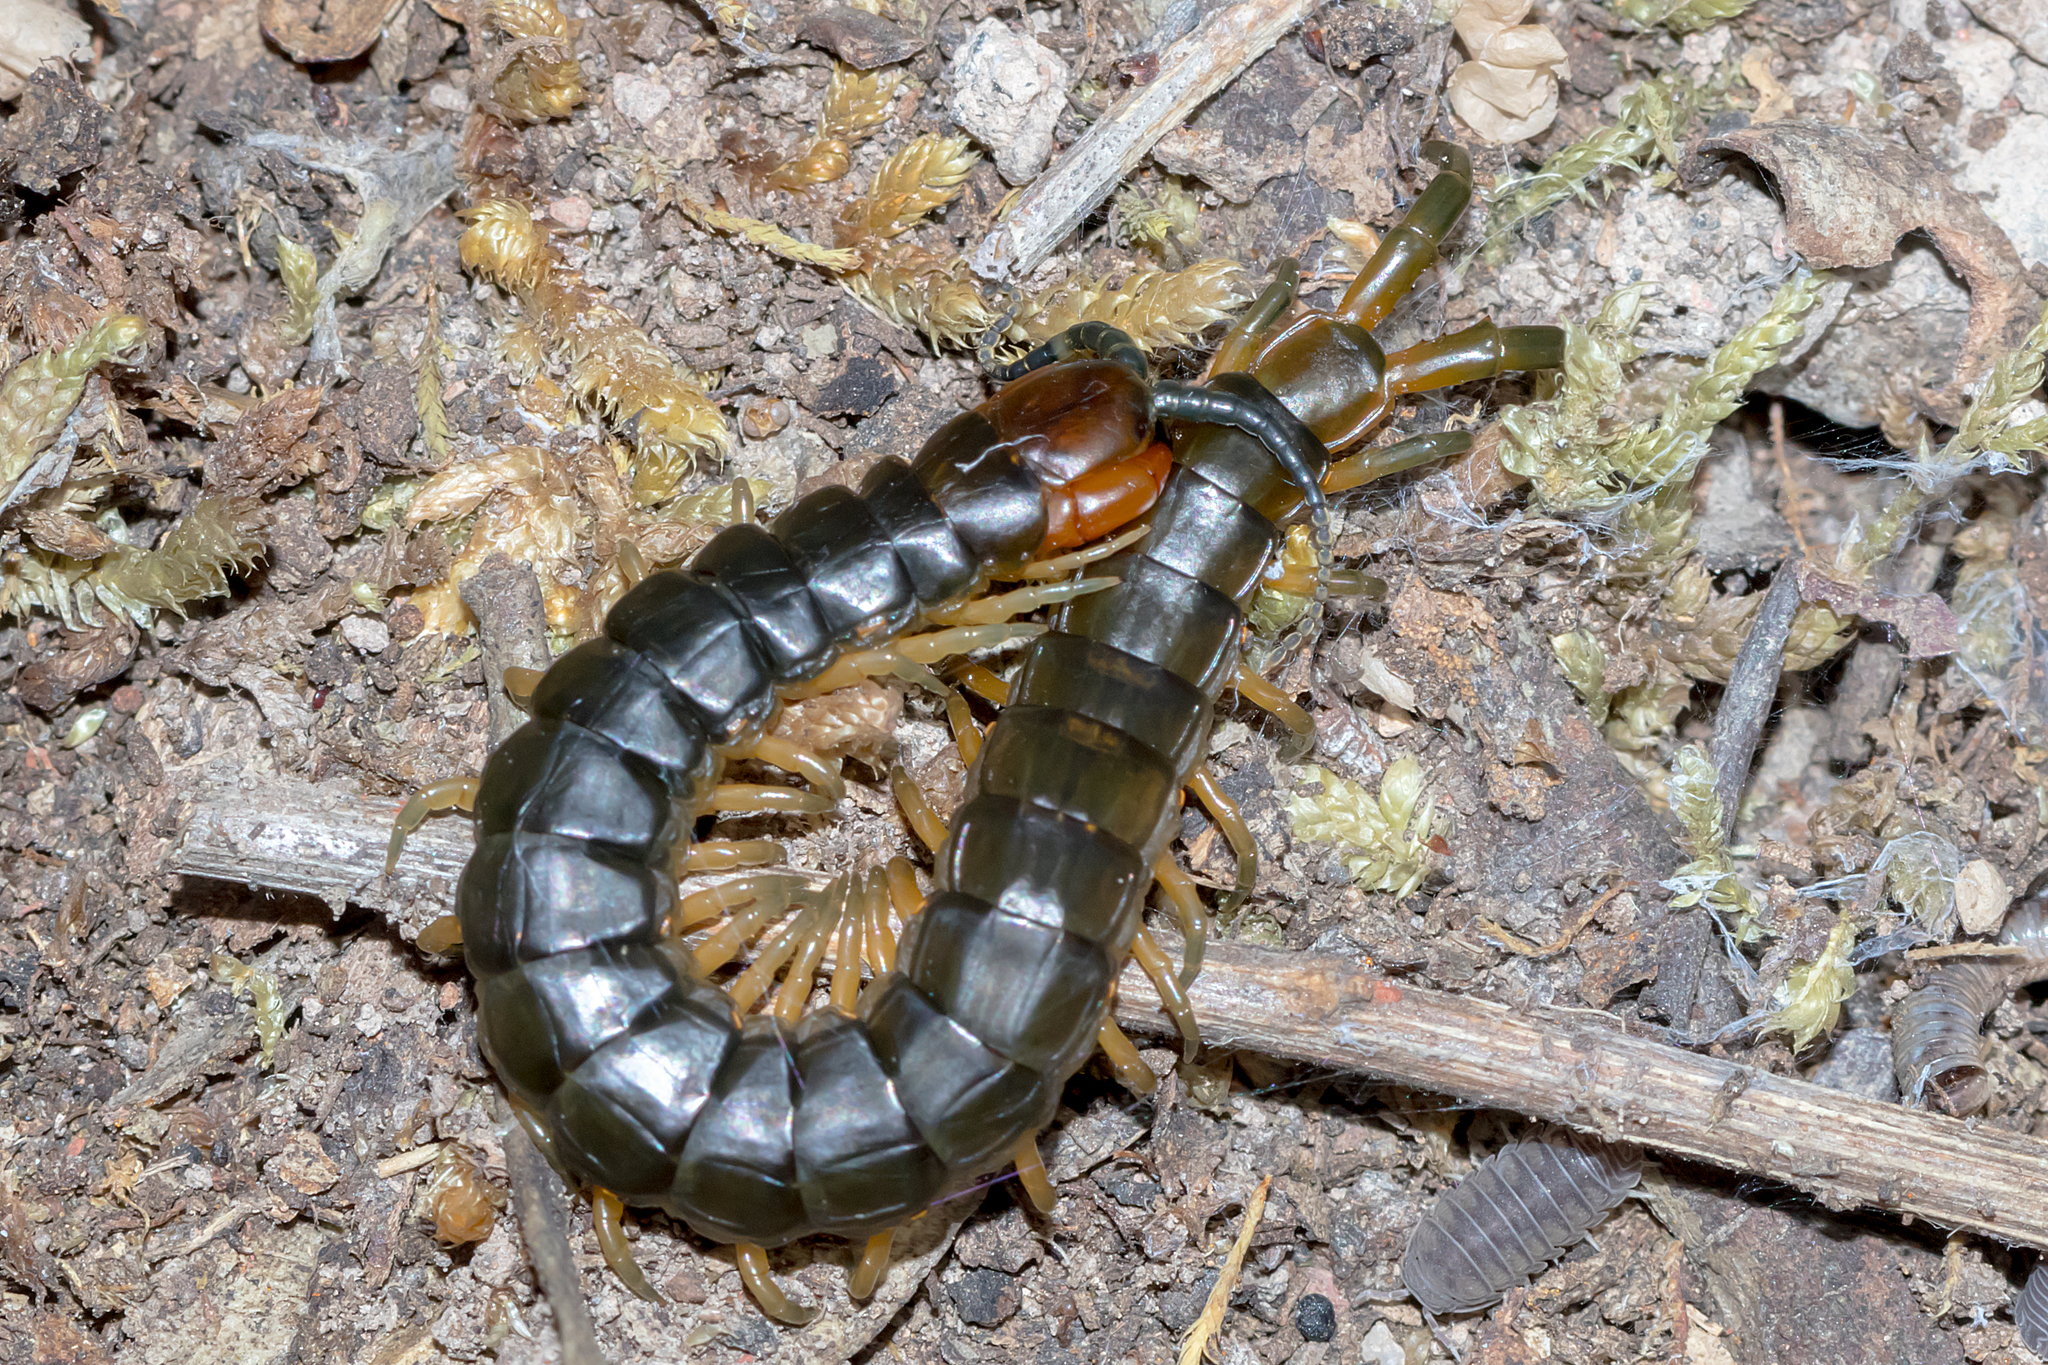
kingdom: Animalia
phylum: Arthropoda
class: Chilopoda
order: Scolopendromorpha
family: Scolopendridae
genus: Cormocephalus
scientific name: Cormocephalus aurantiipes
